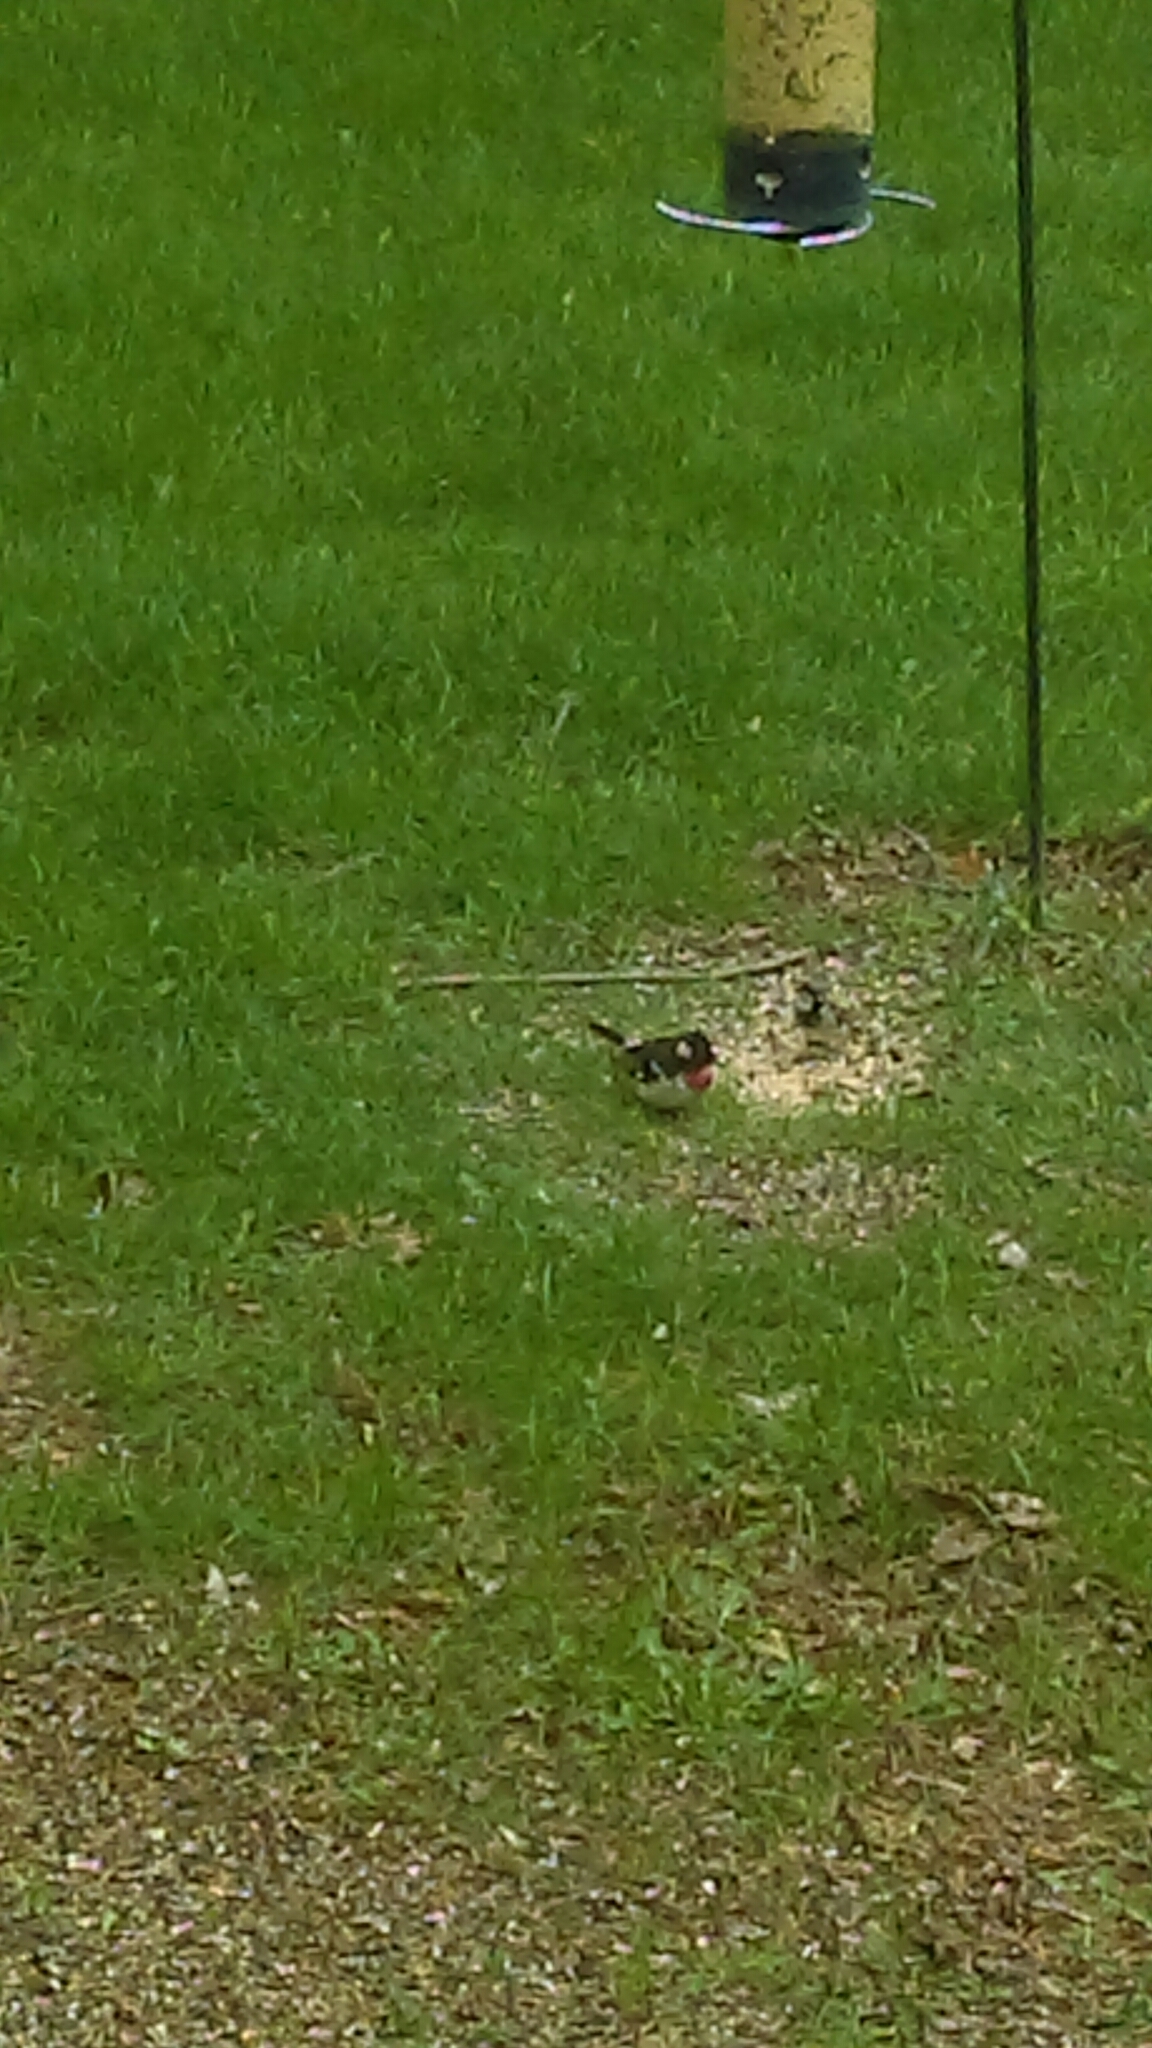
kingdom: Animalia
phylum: Chordata
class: Aves
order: Passeriformes
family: Cardinalidae
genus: Pheucticus
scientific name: Pheucticus ludovicianus
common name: Rose-breasted grosbeak
